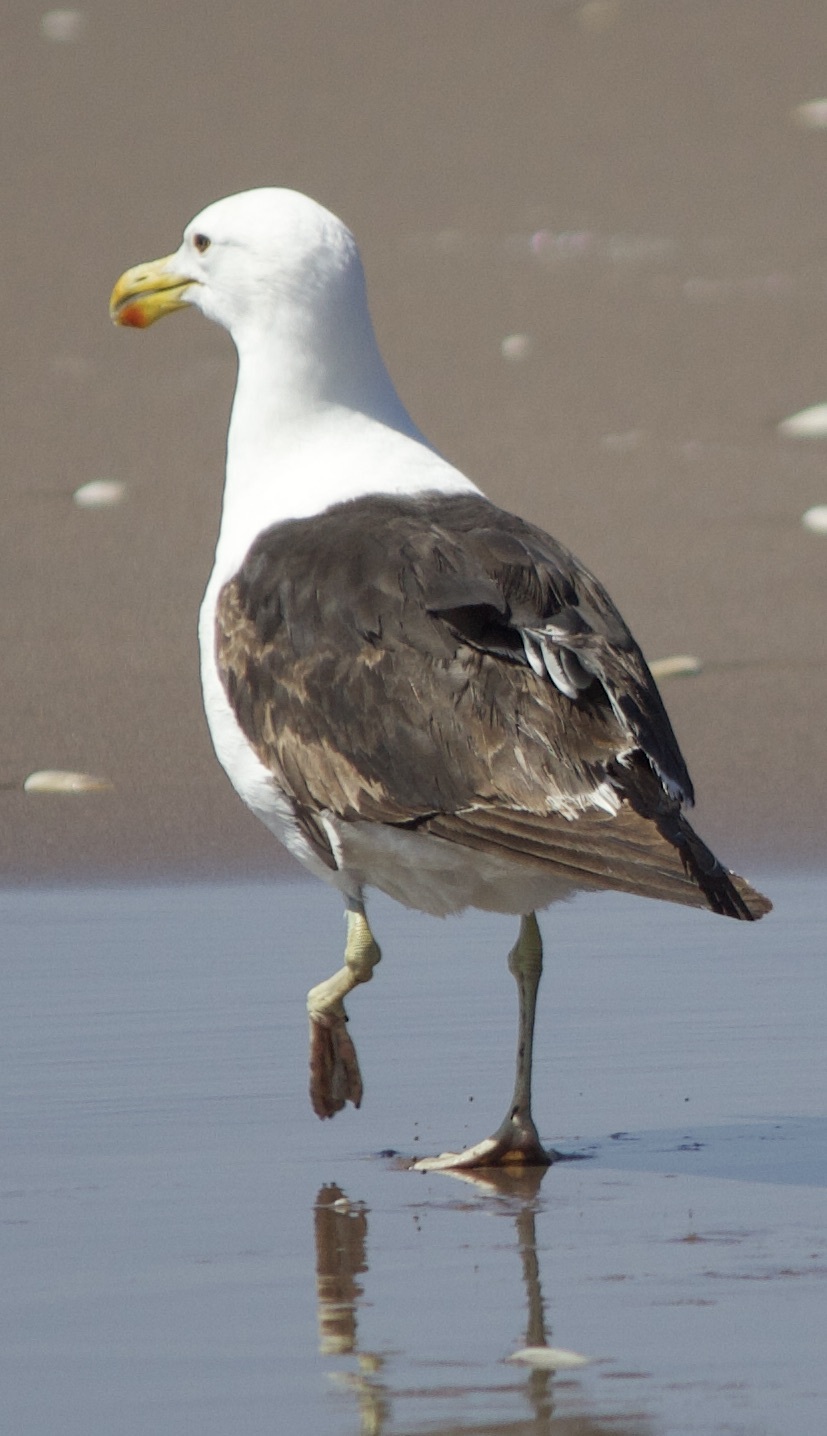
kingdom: Animalia
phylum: Chordata
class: Aves
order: Charadriiformes
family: Laridae
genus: Larus
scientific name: Larus dominicanus
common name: Kelp gull
